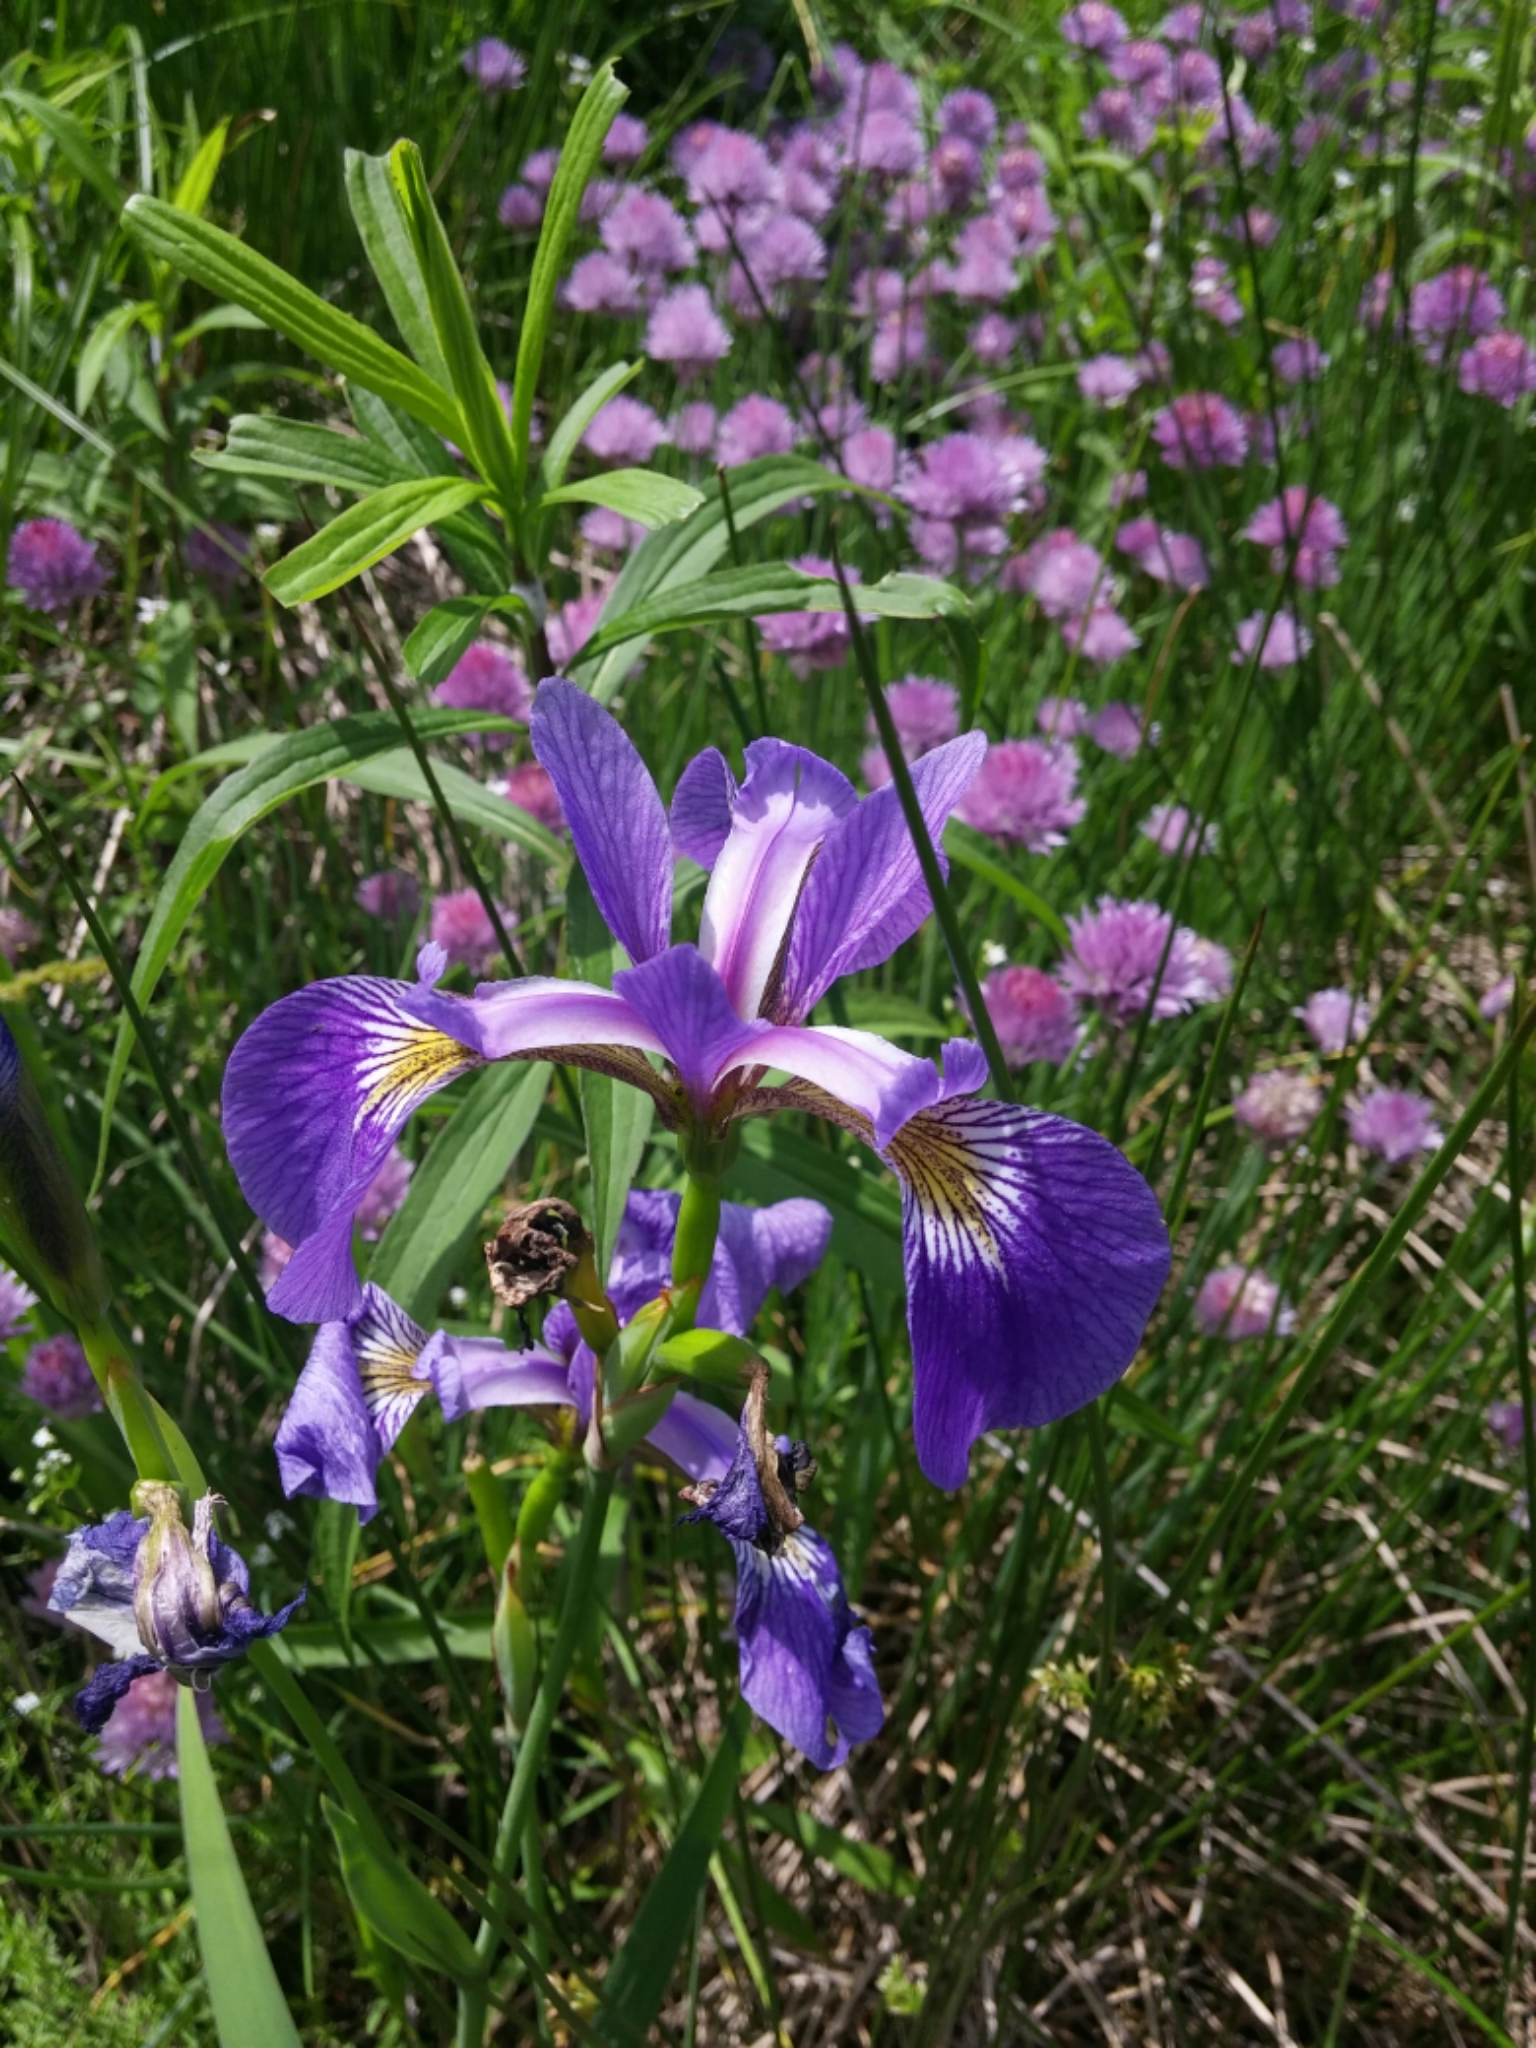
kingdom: Plantae
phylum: Tracheophyta
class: Liliopsida
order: Asparagales
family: Iridaceae
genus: Iris
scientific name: Iris versicolor
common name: Purple iris
